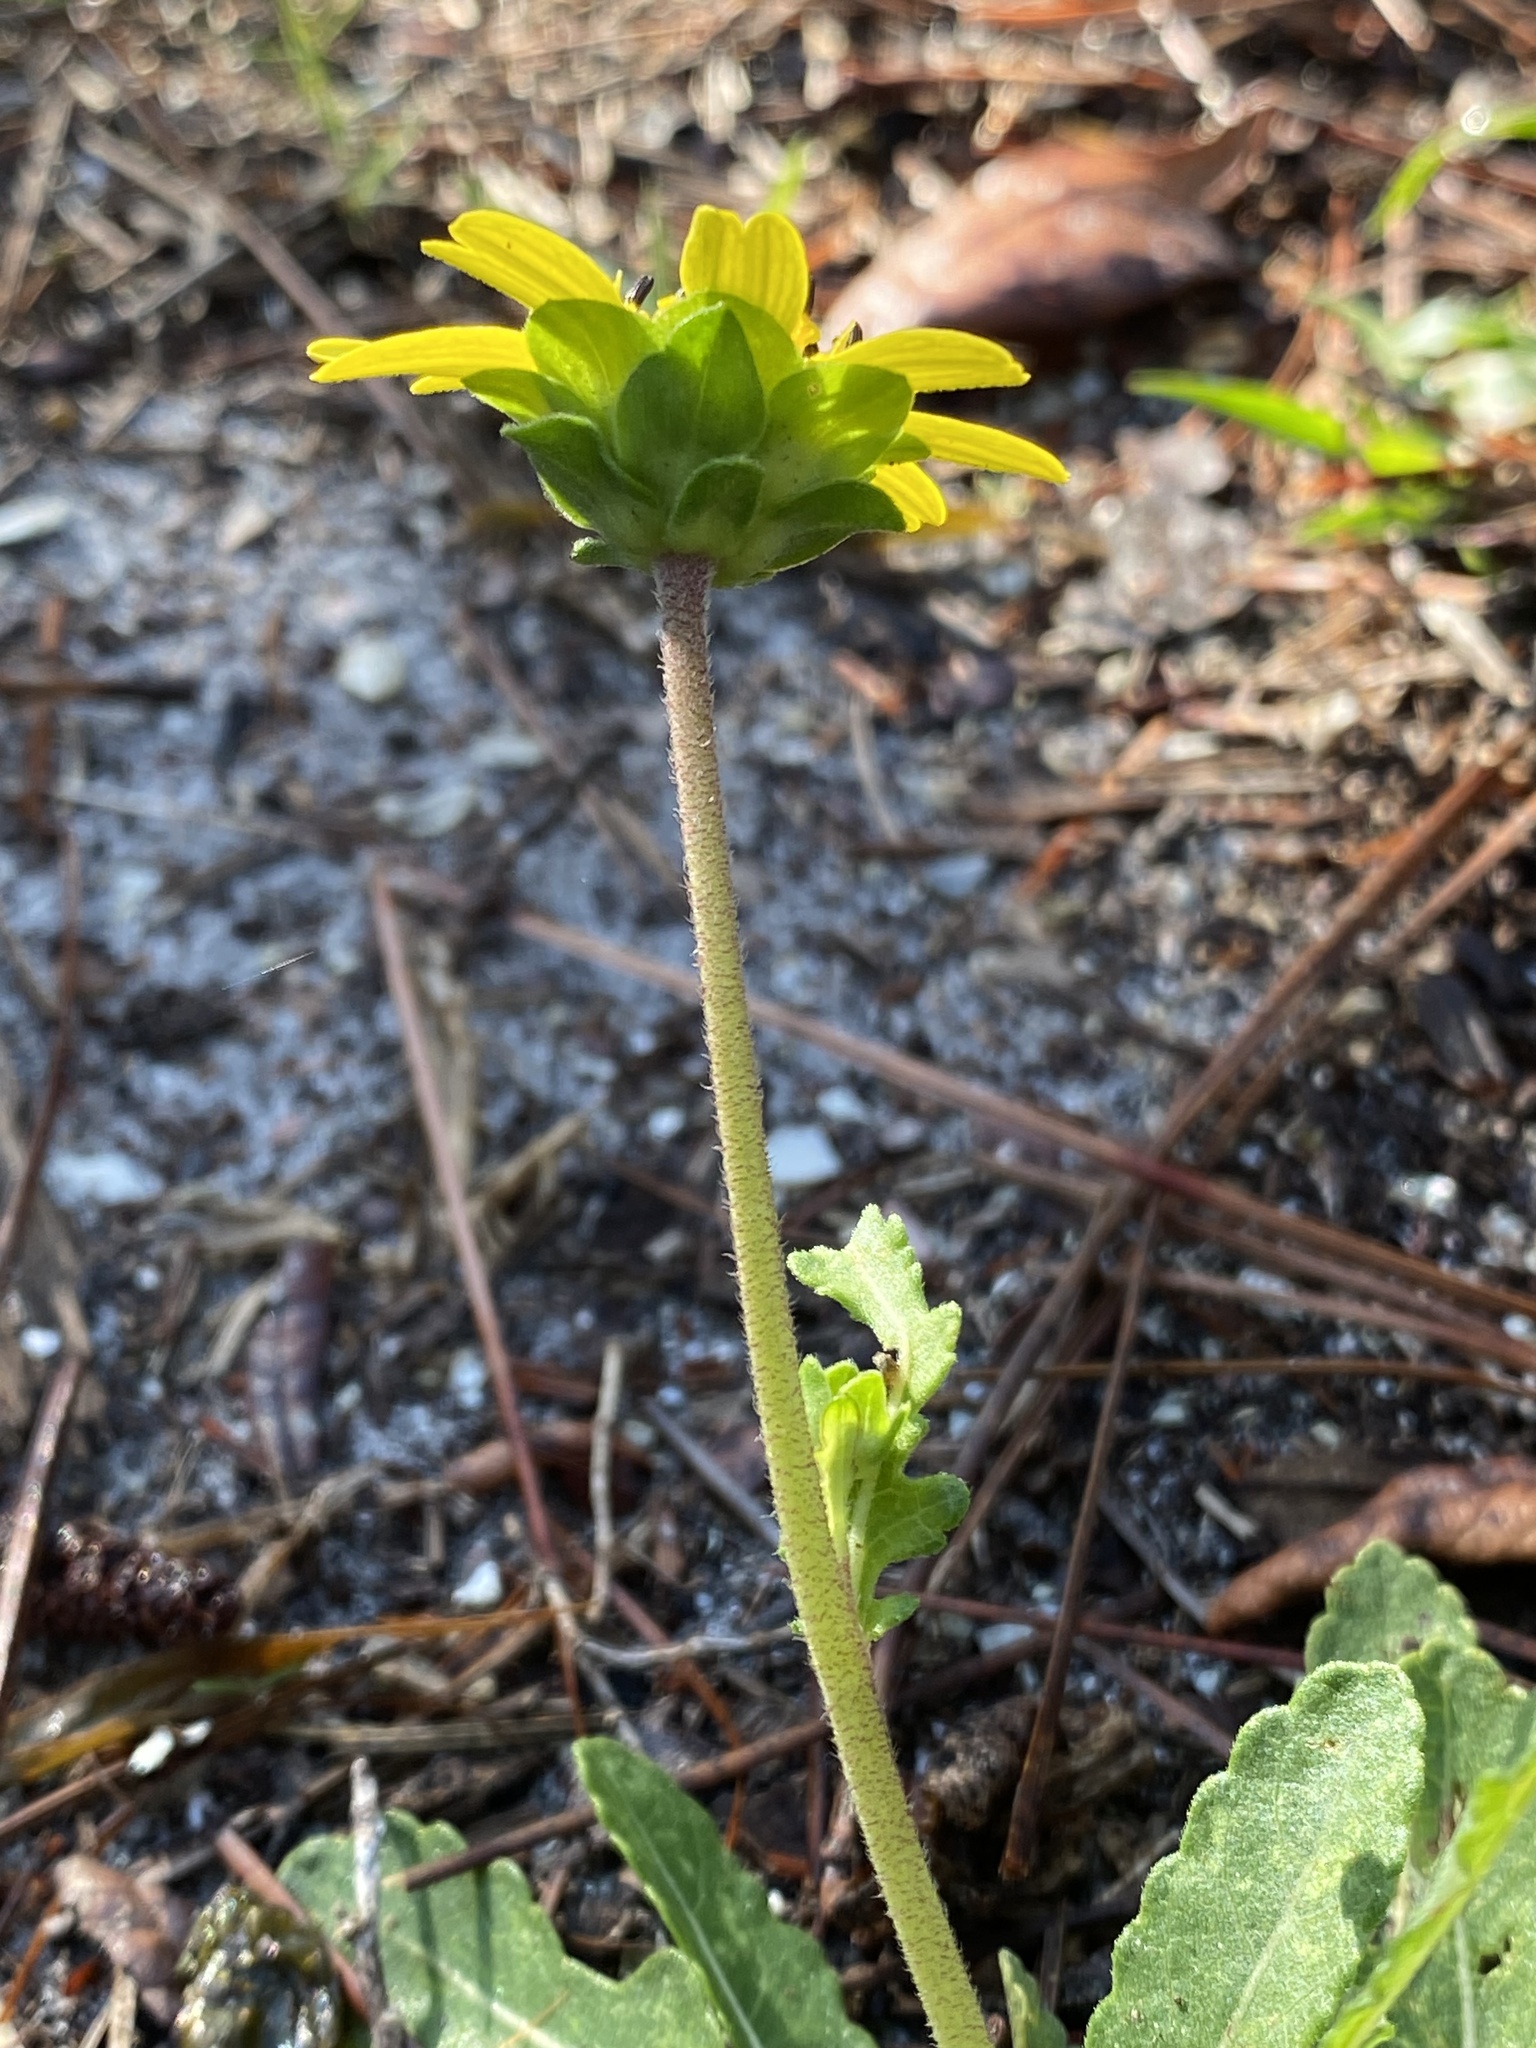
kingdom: Plantae
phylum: Tracheophyta
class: Magnoliopsida
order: Asterales
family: Asteraceae
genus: Berlandiera
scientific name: Berlandiera subacaulis
